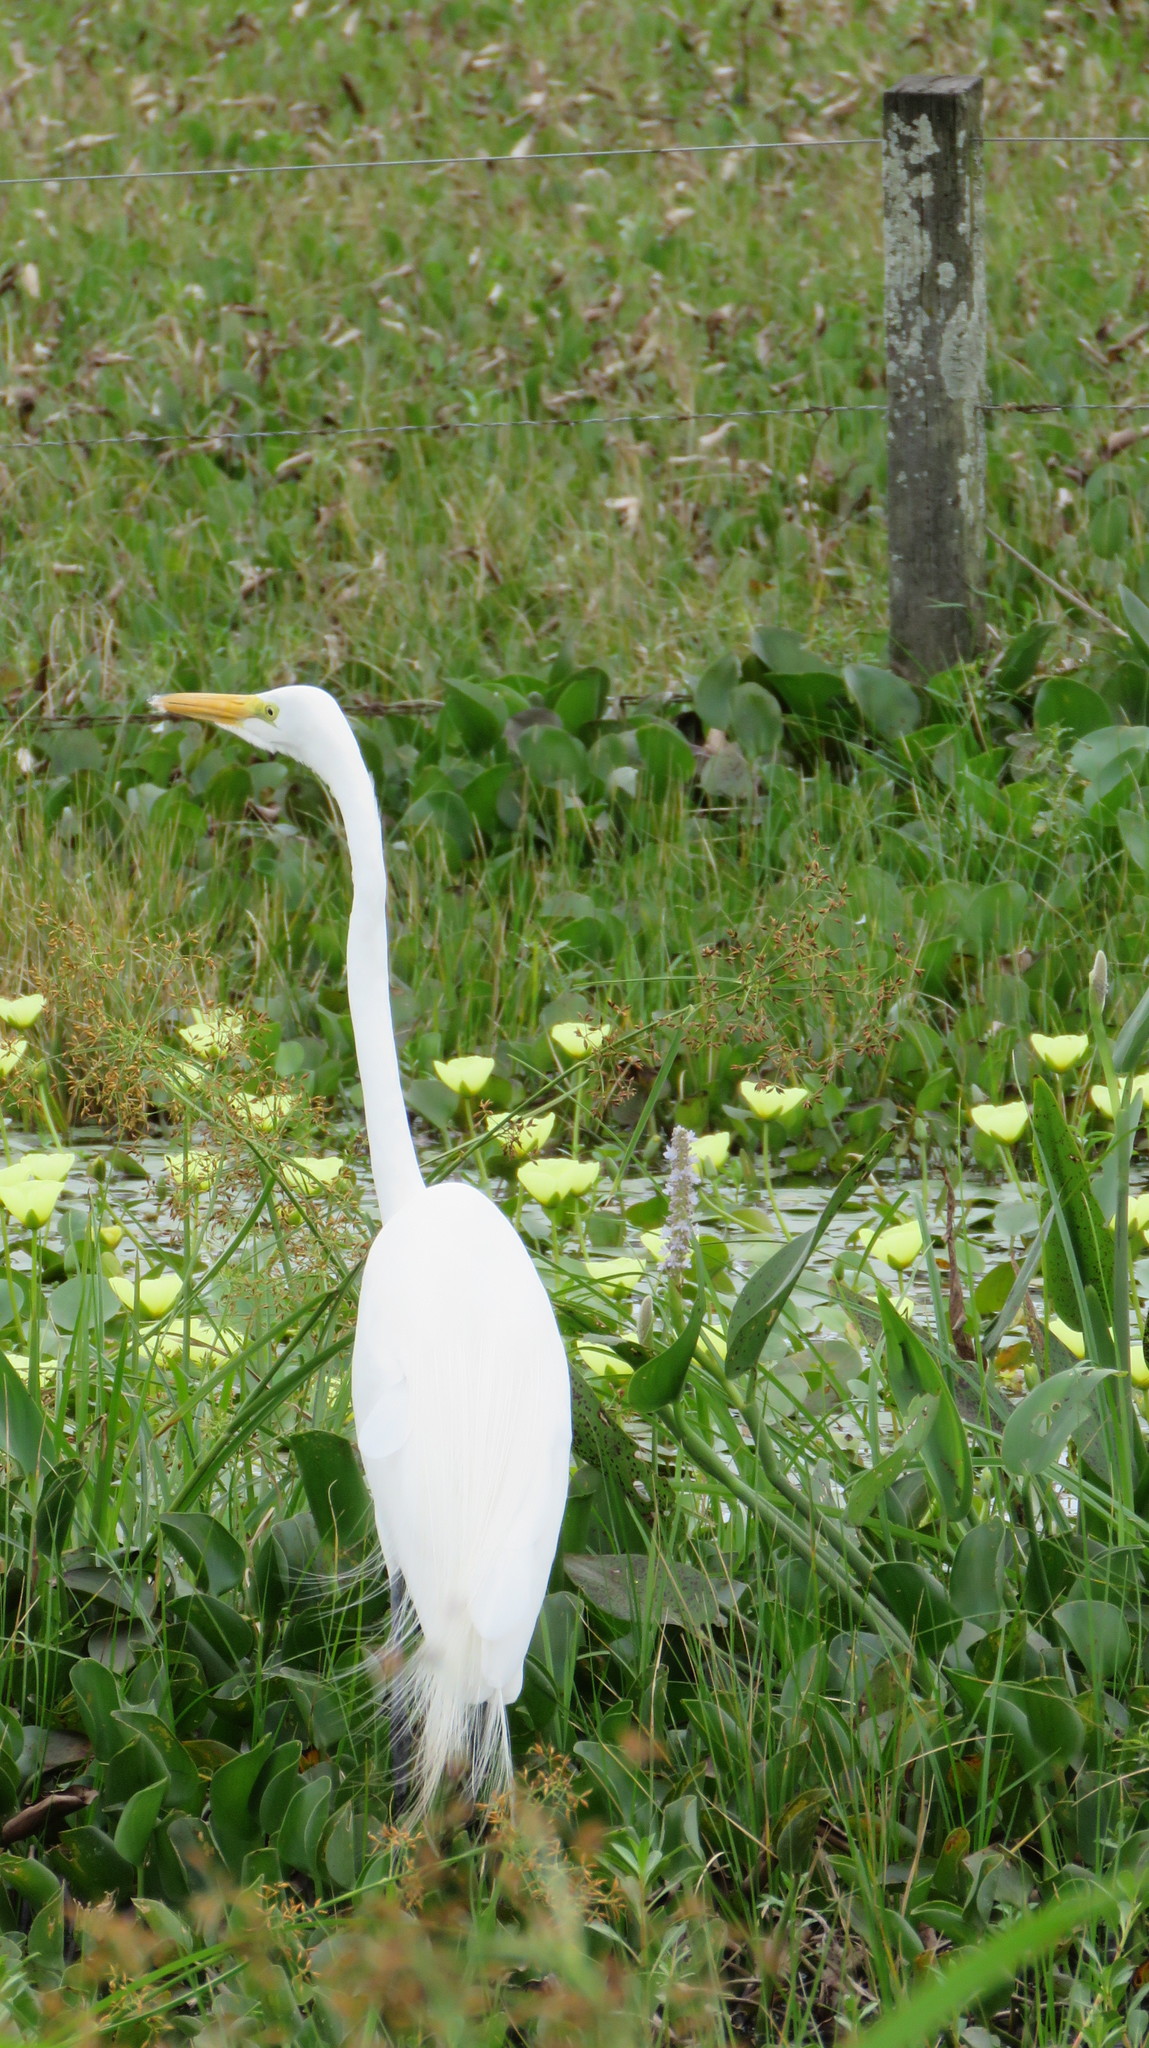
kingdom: Animalia
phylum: Chordata
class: Aves
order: Pelecaniformes
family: Ardeidae
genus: Ardea
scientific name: Ardea alba
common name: Great egret
